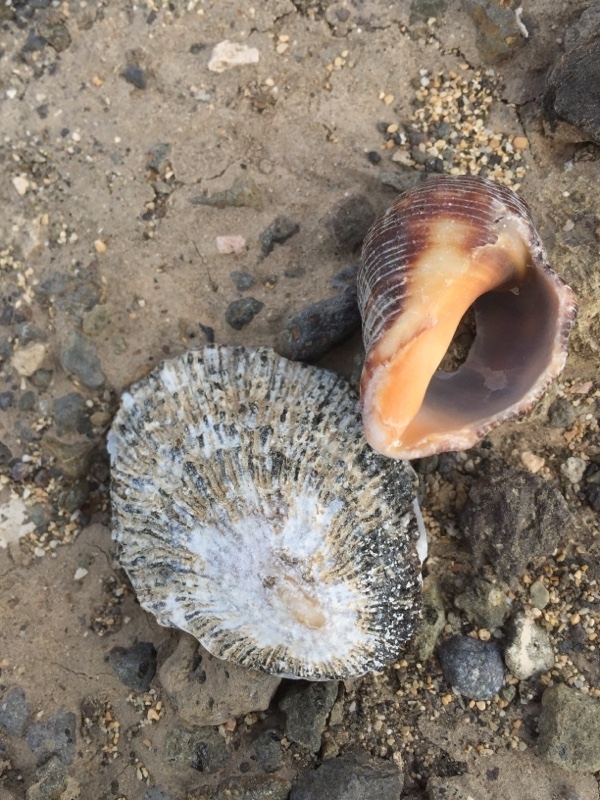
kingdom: Animalia
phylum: Mollusca
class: Gastropoda
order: Neogastropoda
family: Muricidae
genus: Stramonita
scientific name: Stramonita haemastoma
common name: Florida dog winkle
